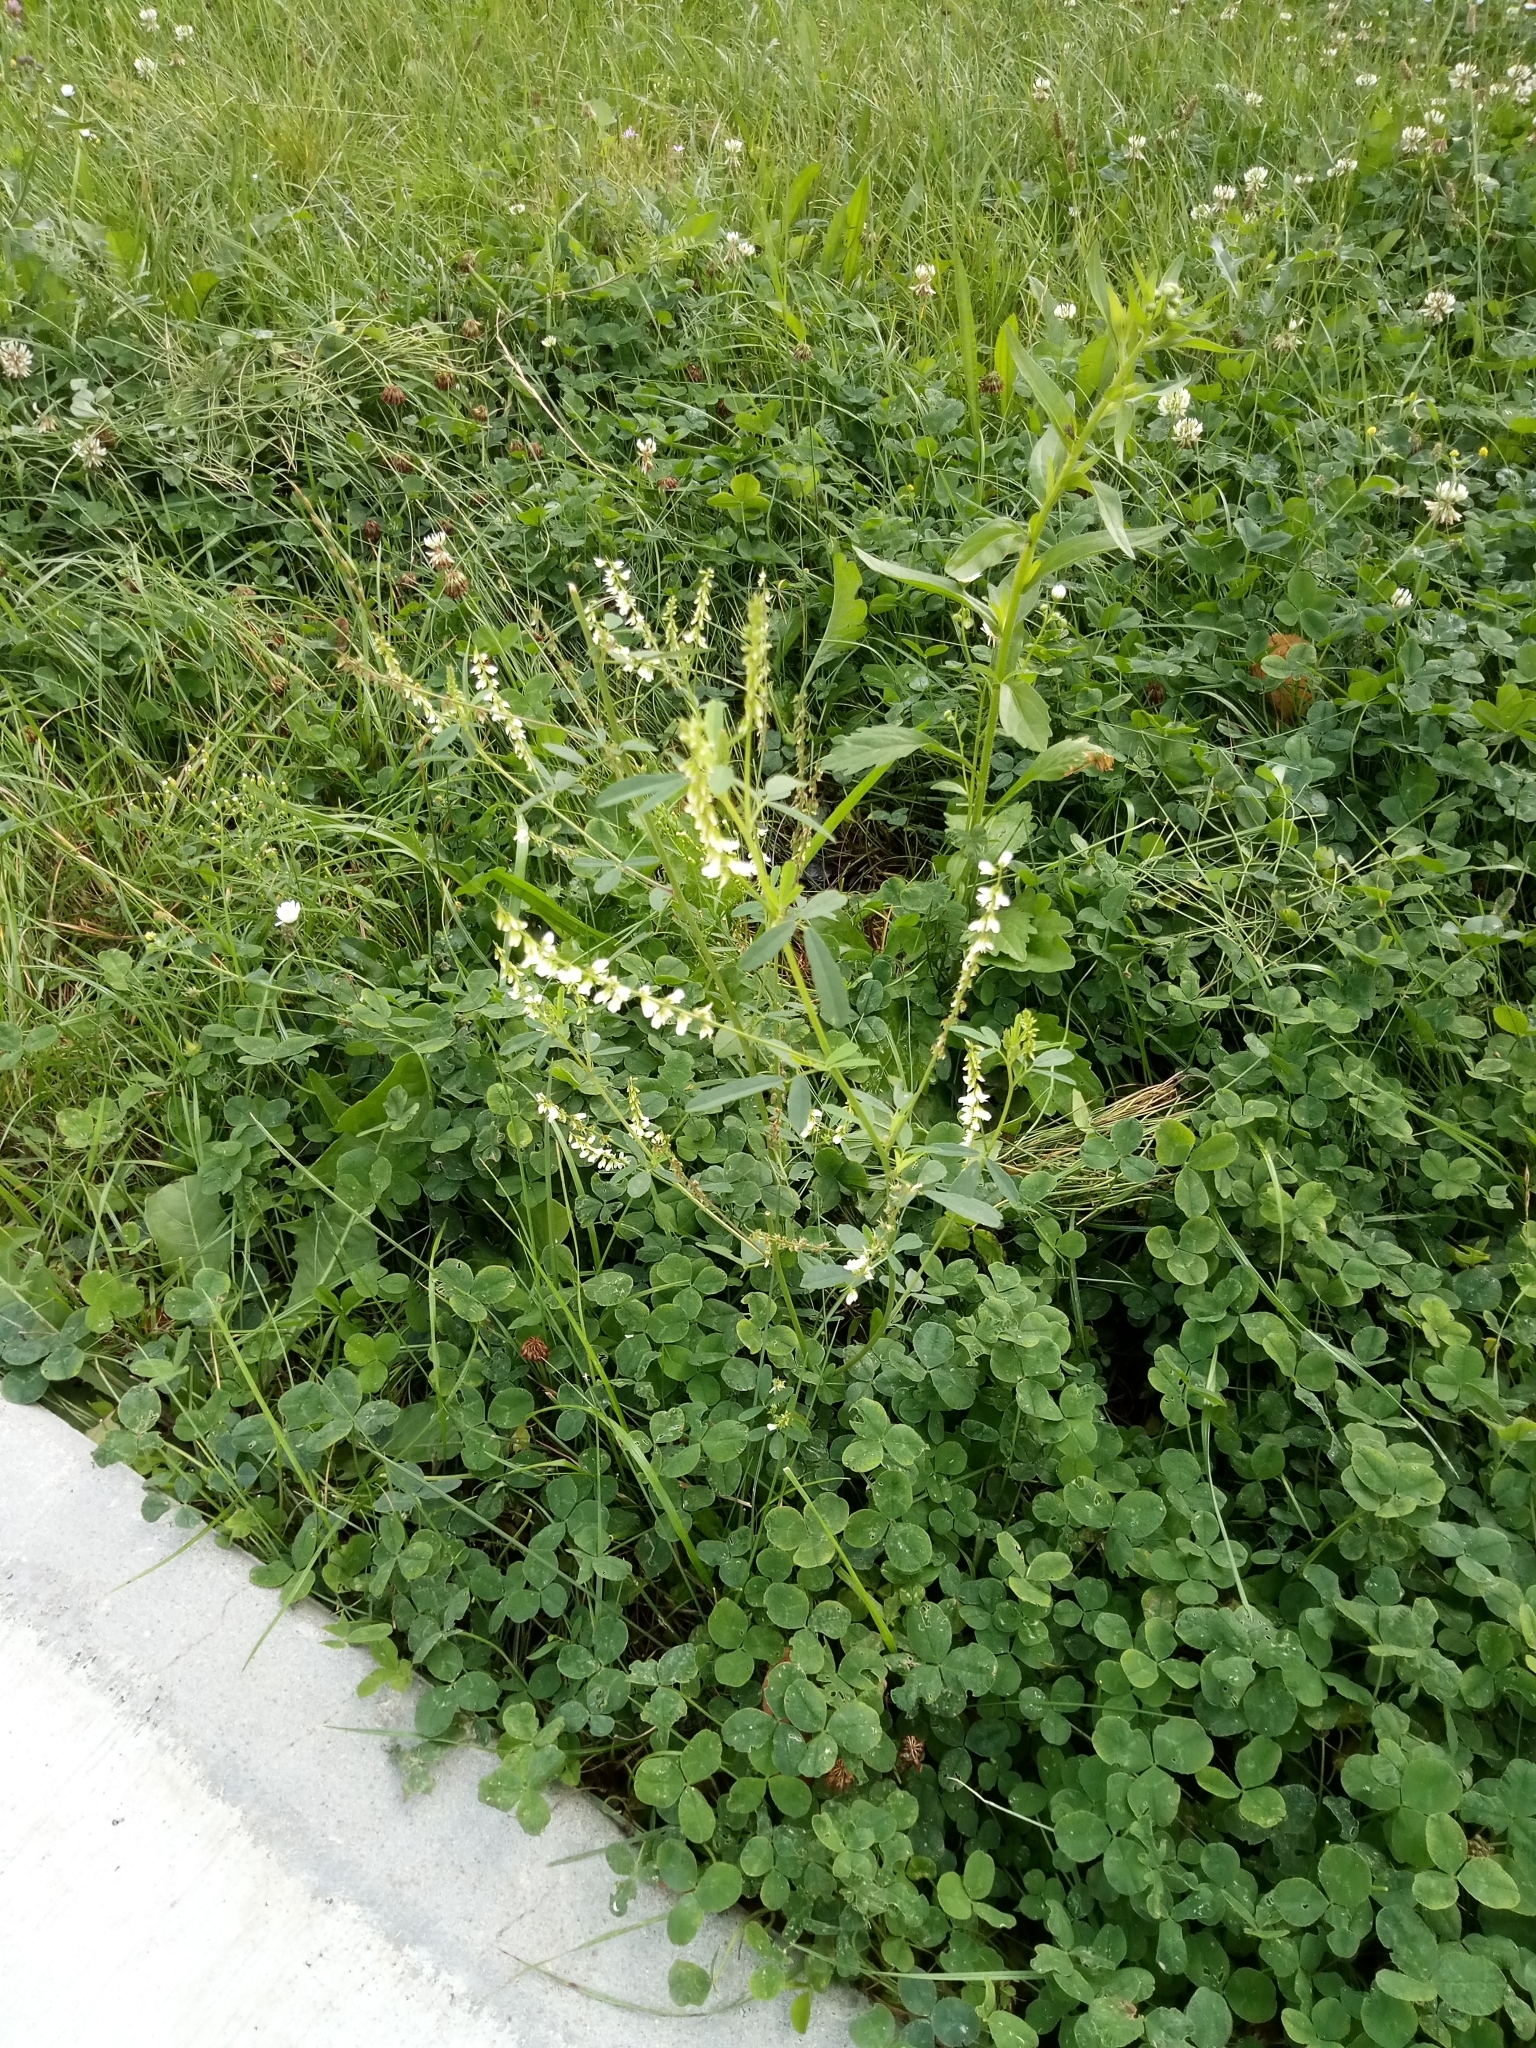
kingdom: Plantae
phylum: Tracheophyta
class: Magnoliopsida
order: Fabales
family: Fabaceae
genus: Melilotus
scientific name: Melilotus albus
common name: White melilot
